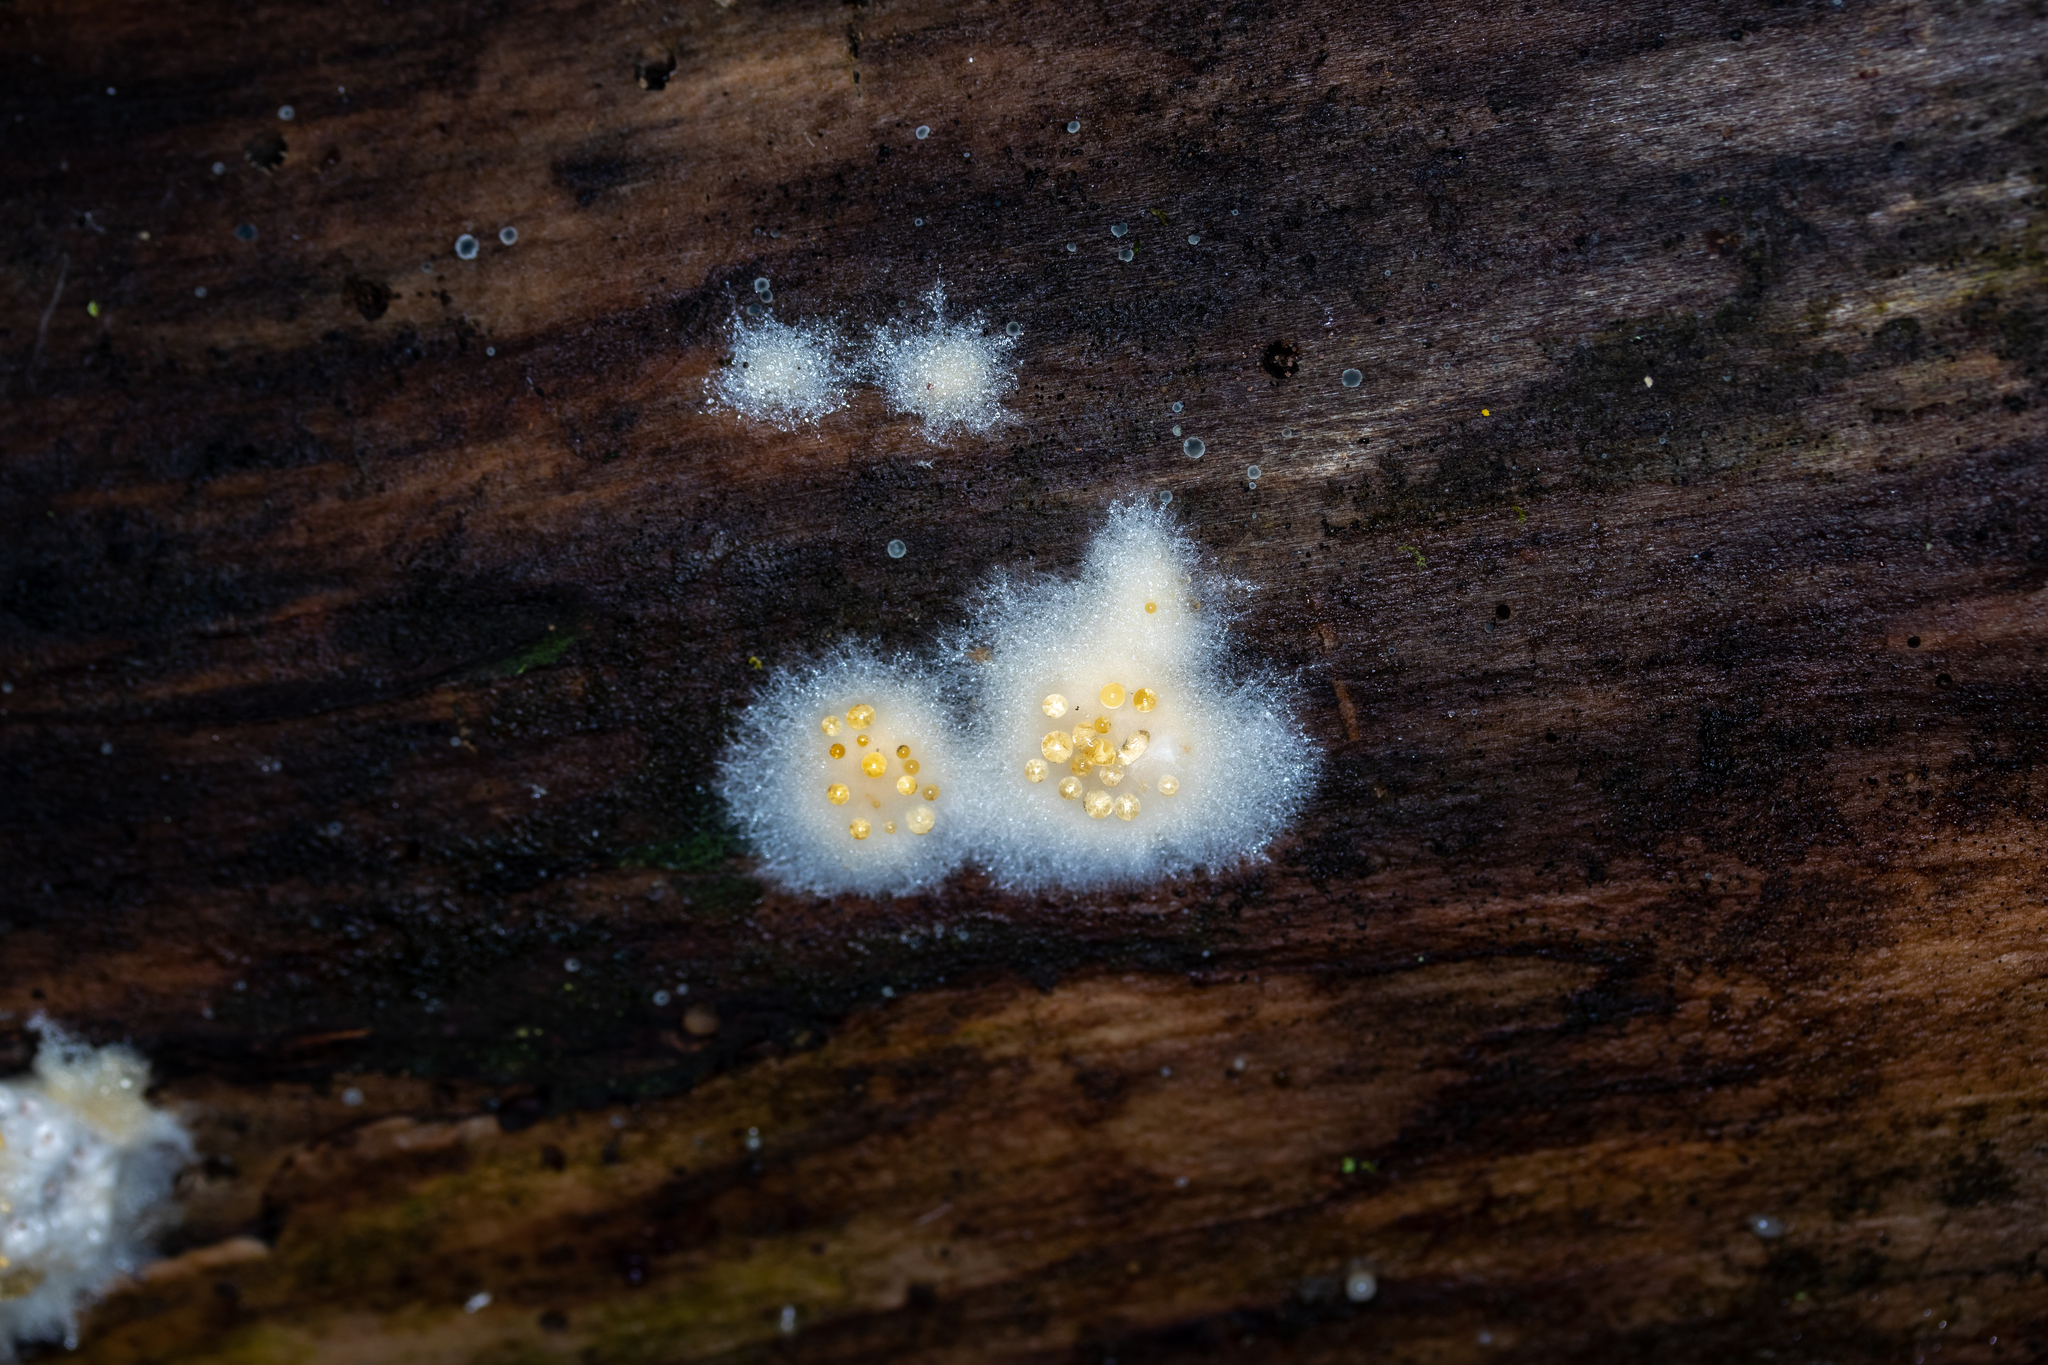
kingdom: Fungi
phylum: Basidiomycota
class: Agaricomycetes
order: Polyporales
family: Dacryobolaceae
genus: Postia
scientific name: Postia ptychogaster
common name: Powderpuff bracket
